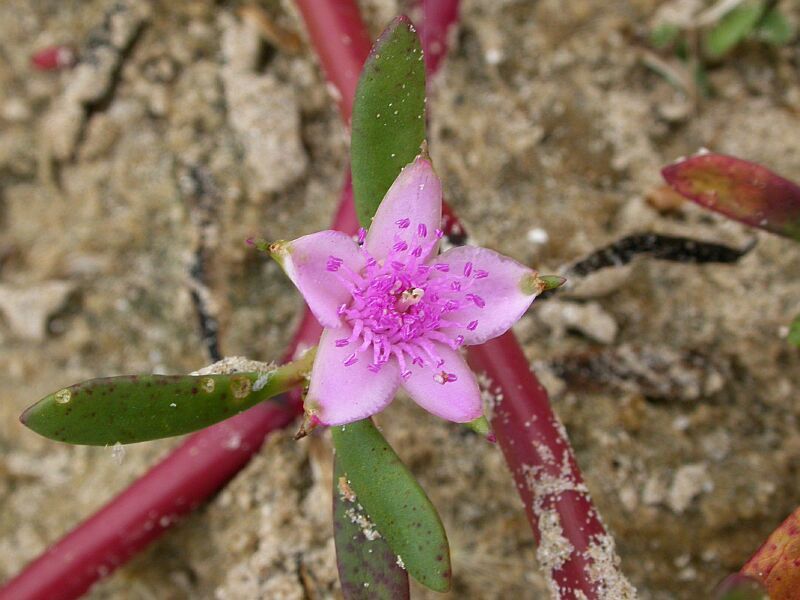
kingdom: Plantae
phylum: Tracheophyta
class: Magnoliopsida
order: Caryophyllales
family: Aizoaceae
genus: Sesuvium
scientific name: Sesuvium portulacastrum
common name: Sea-purslane
